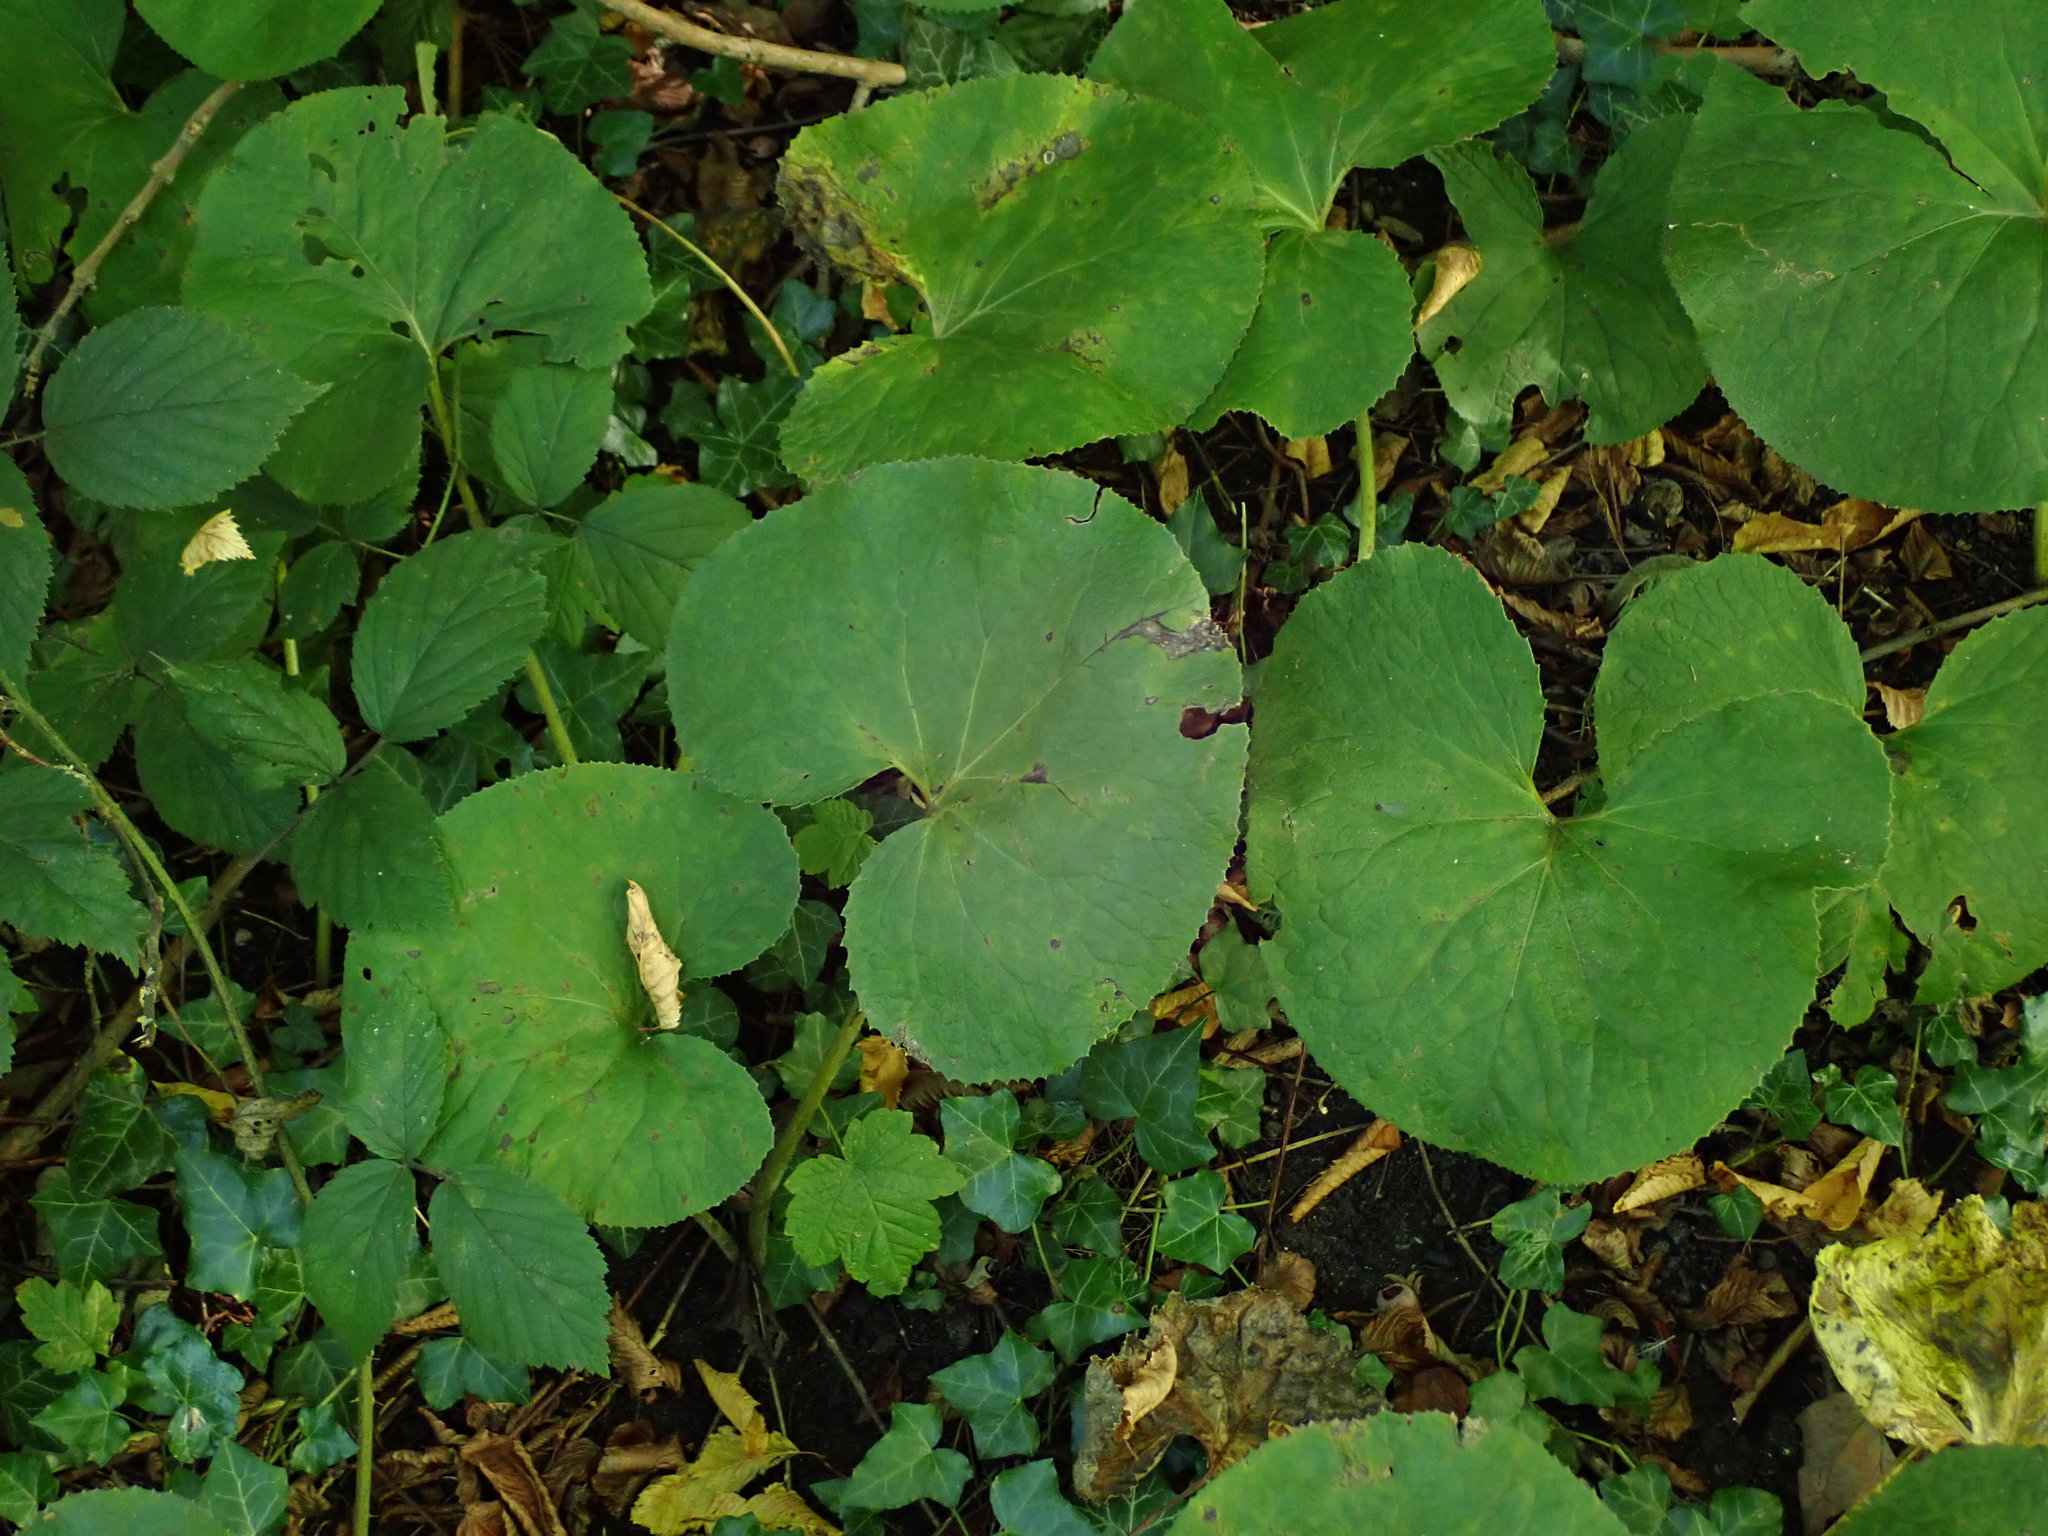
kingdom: Plantae
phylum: Tracheophyta
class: Magnoliopsida
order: Asterales
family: Asteraceae
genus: Petasites
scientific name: Petasites pyrenaicus
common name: Winter heliotrope
